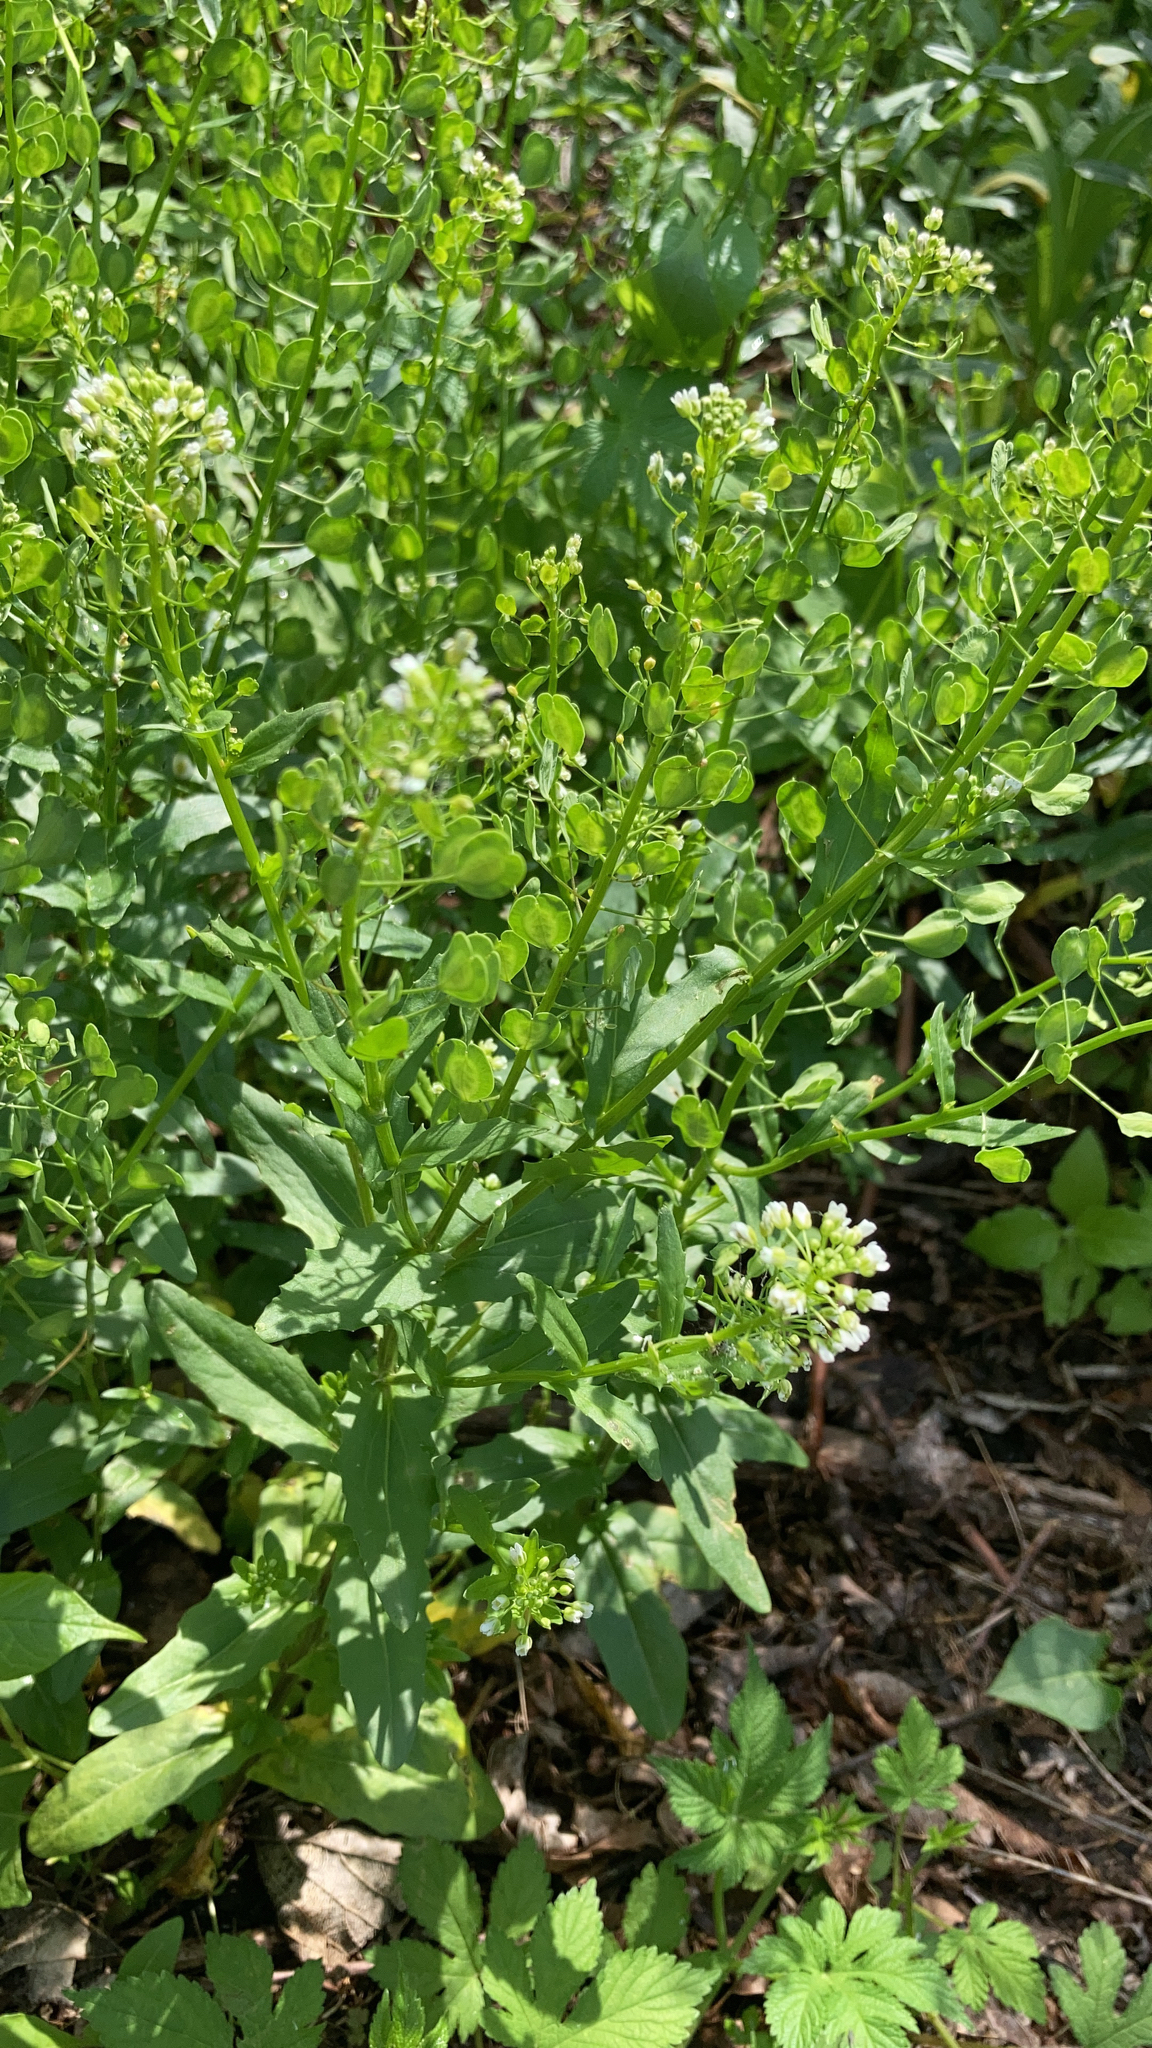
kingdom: Plantae
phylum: Tracheophyta
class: Magnoliopsida
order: Brassicales
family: Brassicaceae
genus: Thlaspi
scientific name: Thlaspi arvense
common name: Field pennycress
